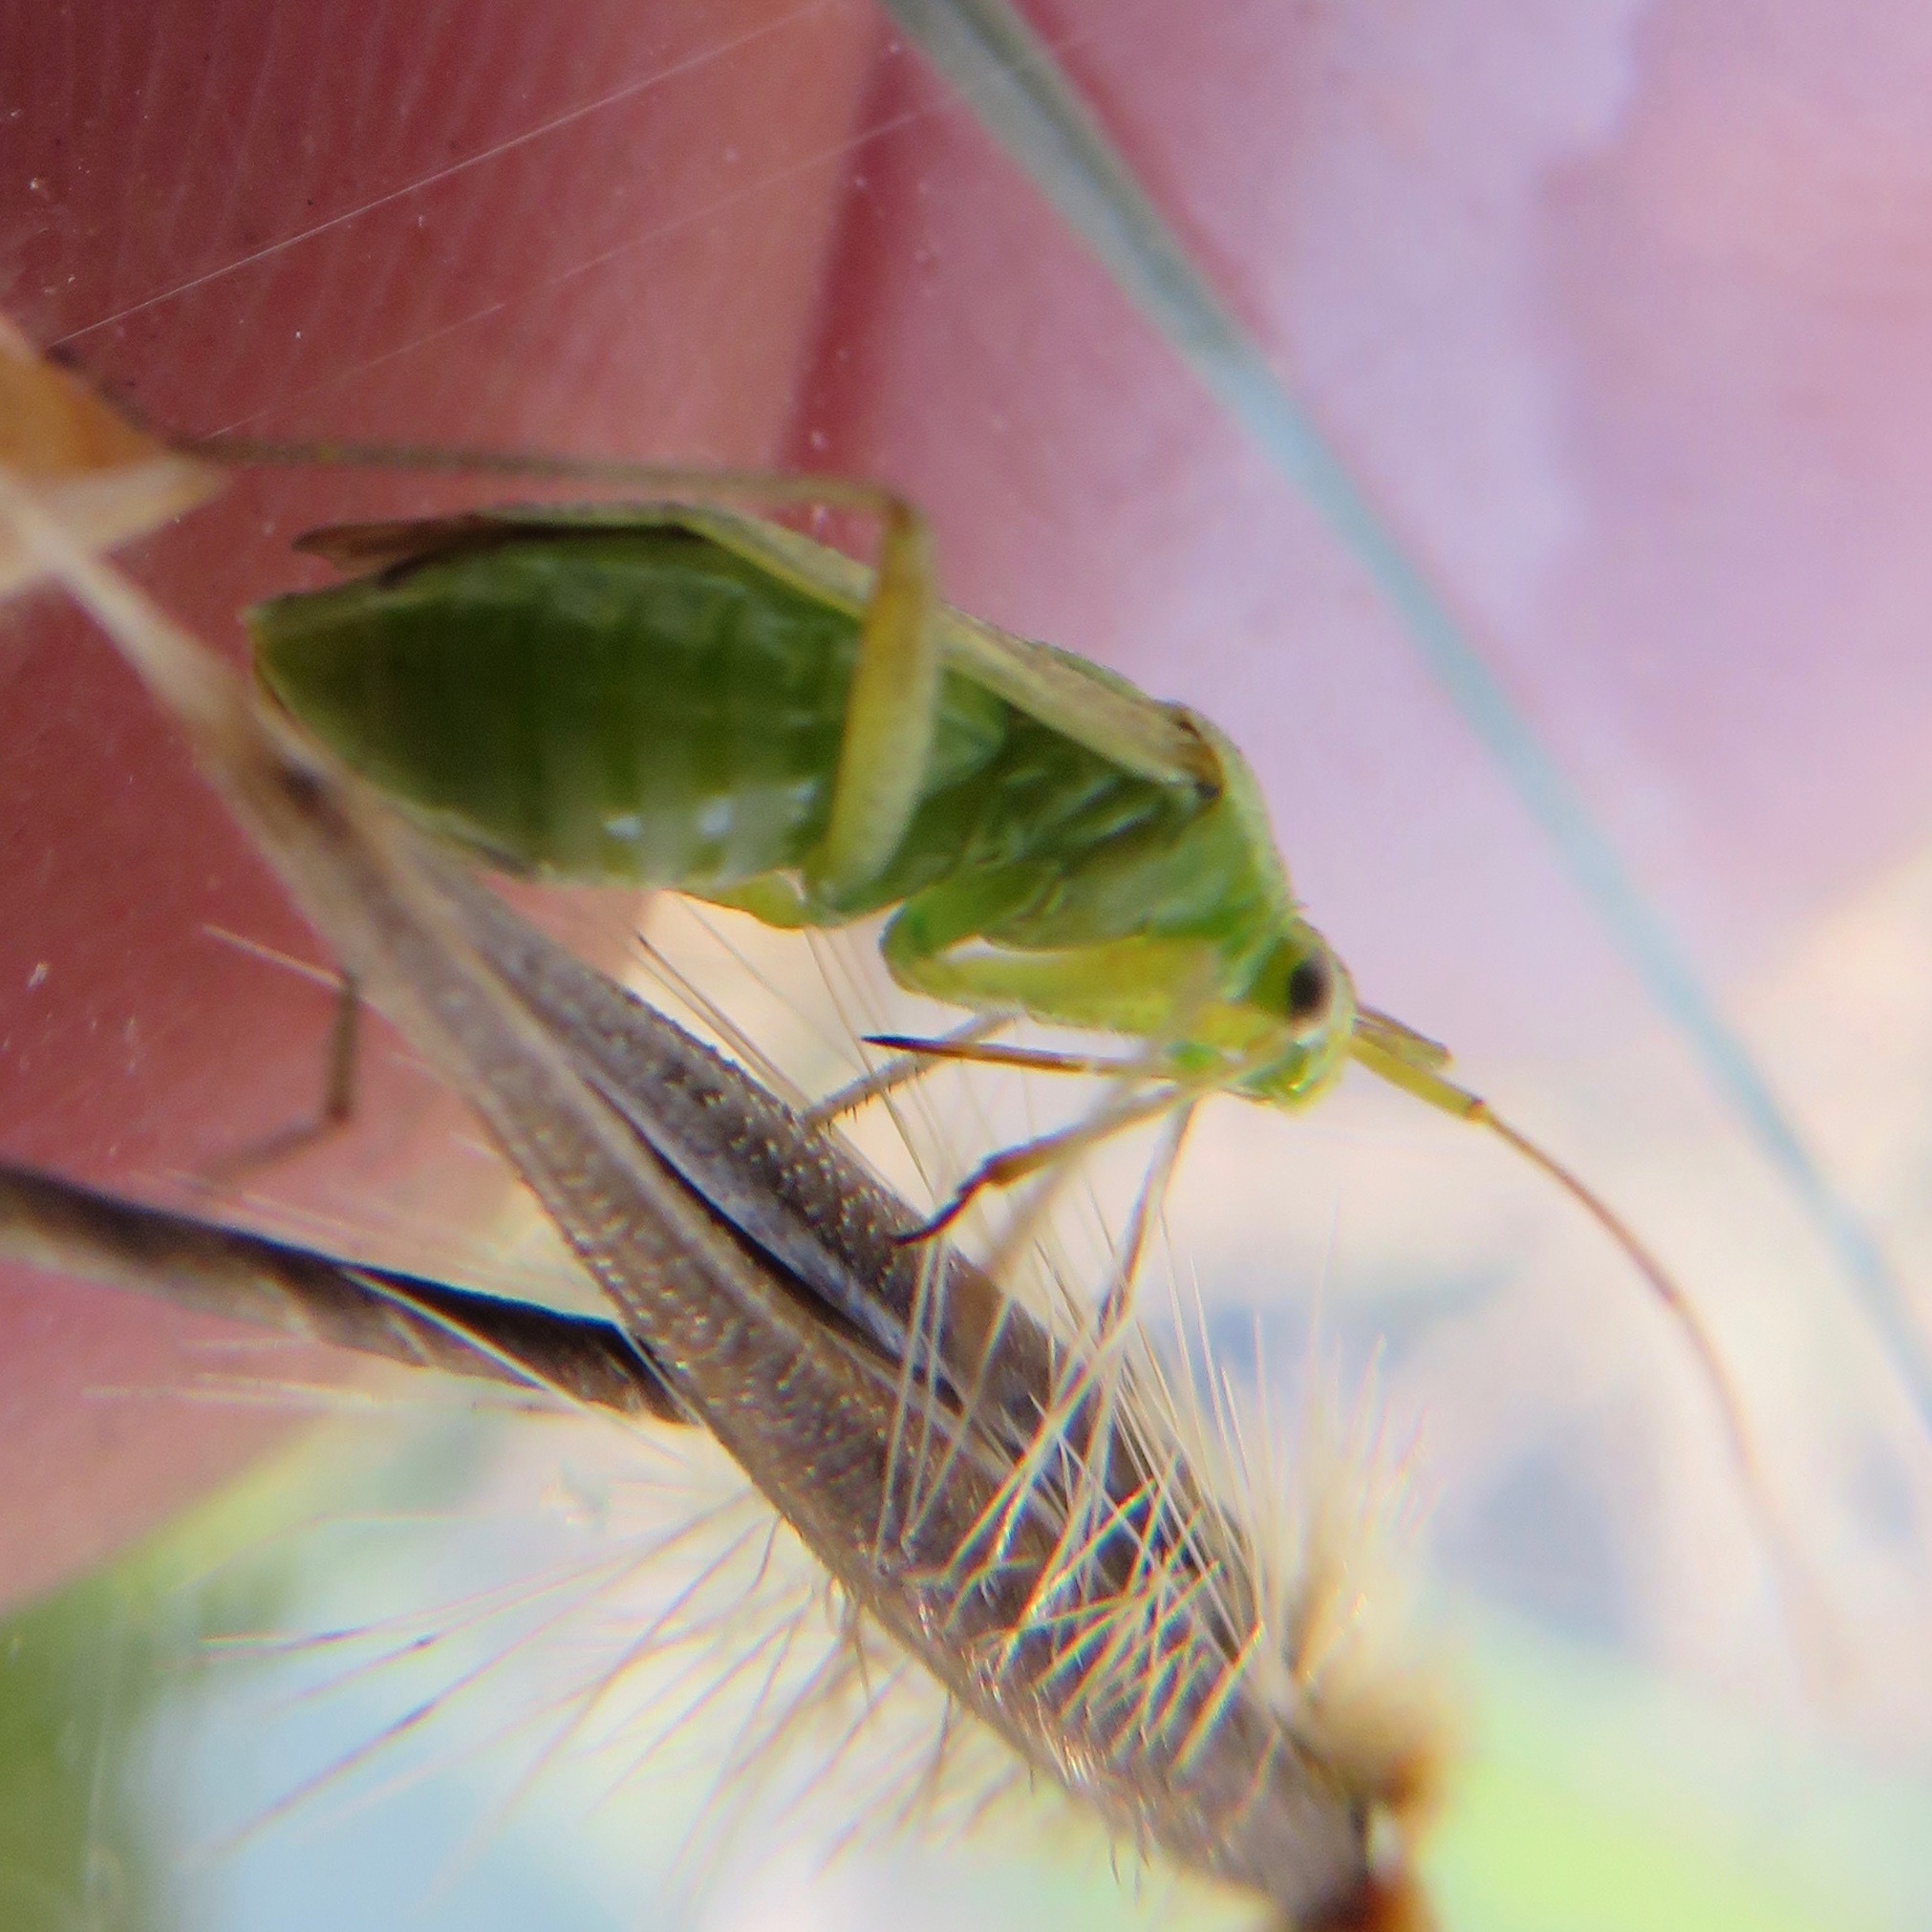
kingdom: Animalia
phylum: Arthropoda
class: Insecta
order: Hemiptera
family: Miridae
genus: Closterotomus
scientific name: Closterotomus norvegicus
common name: Plant bug
